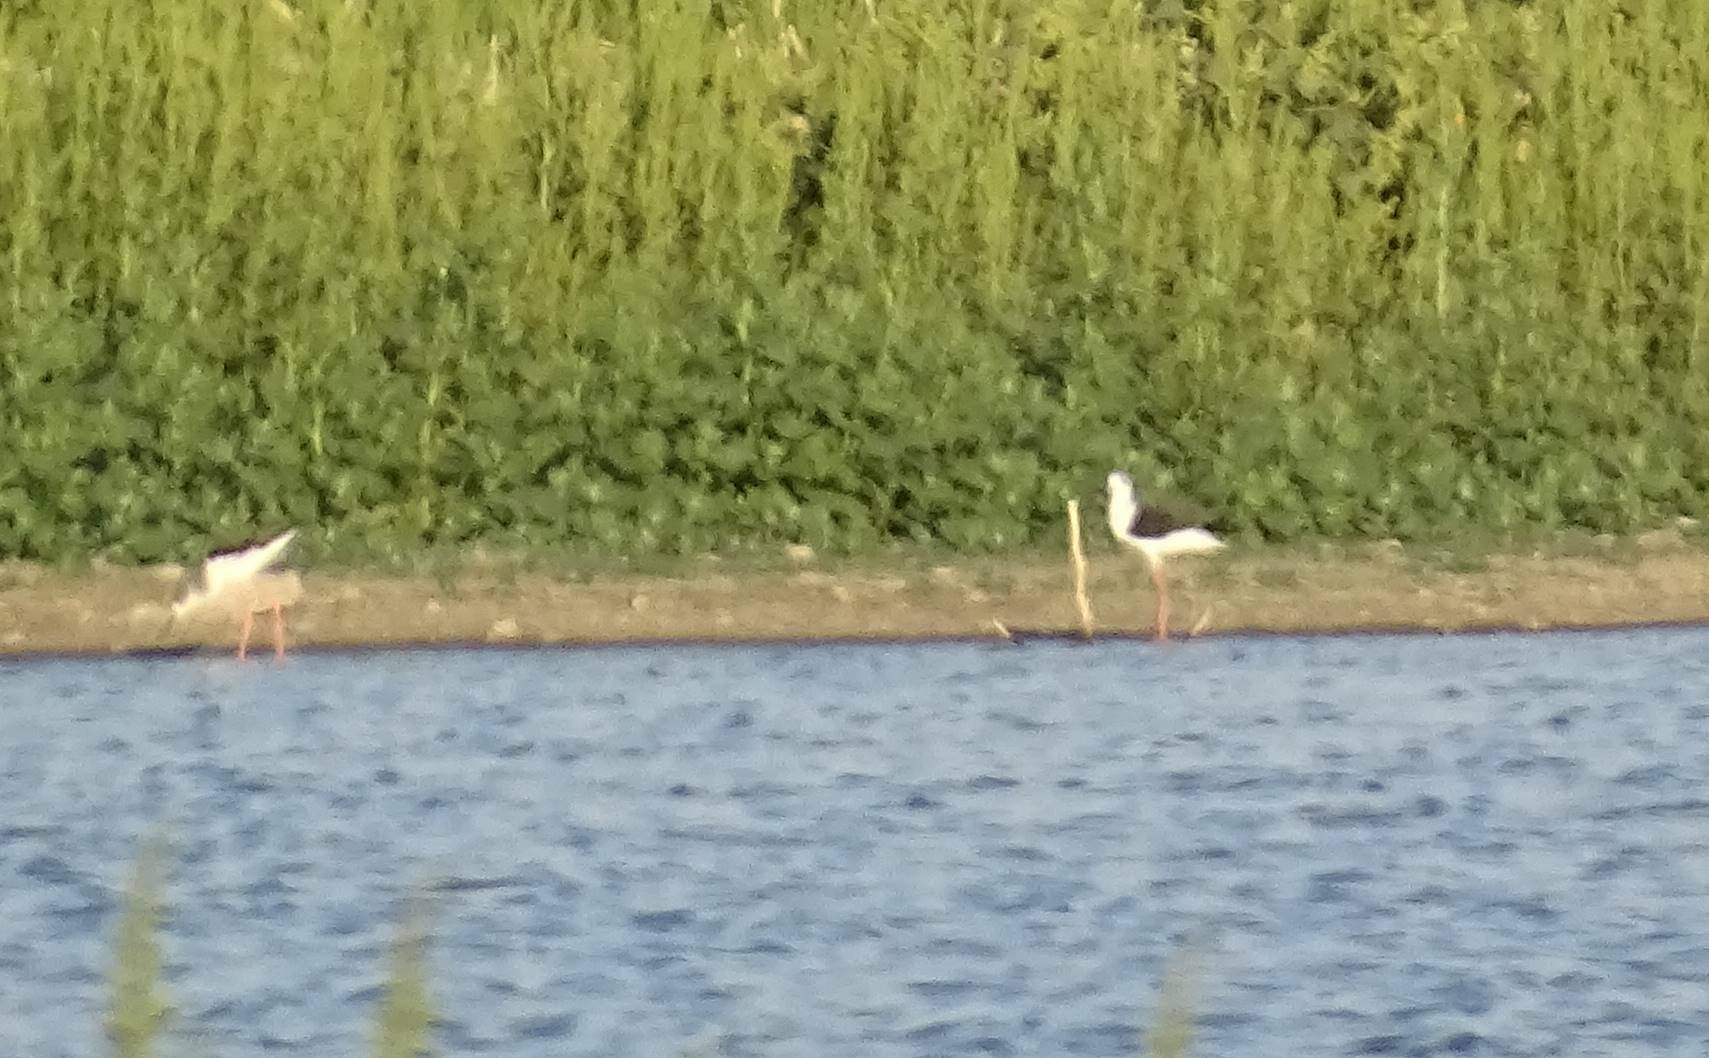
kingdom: Animalia
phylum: Chordata
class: Aves
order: Charadriiformes
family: Recurvirostridae
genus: Himantopus
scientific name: Himantopus himantopus
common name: Black-winged stilt
